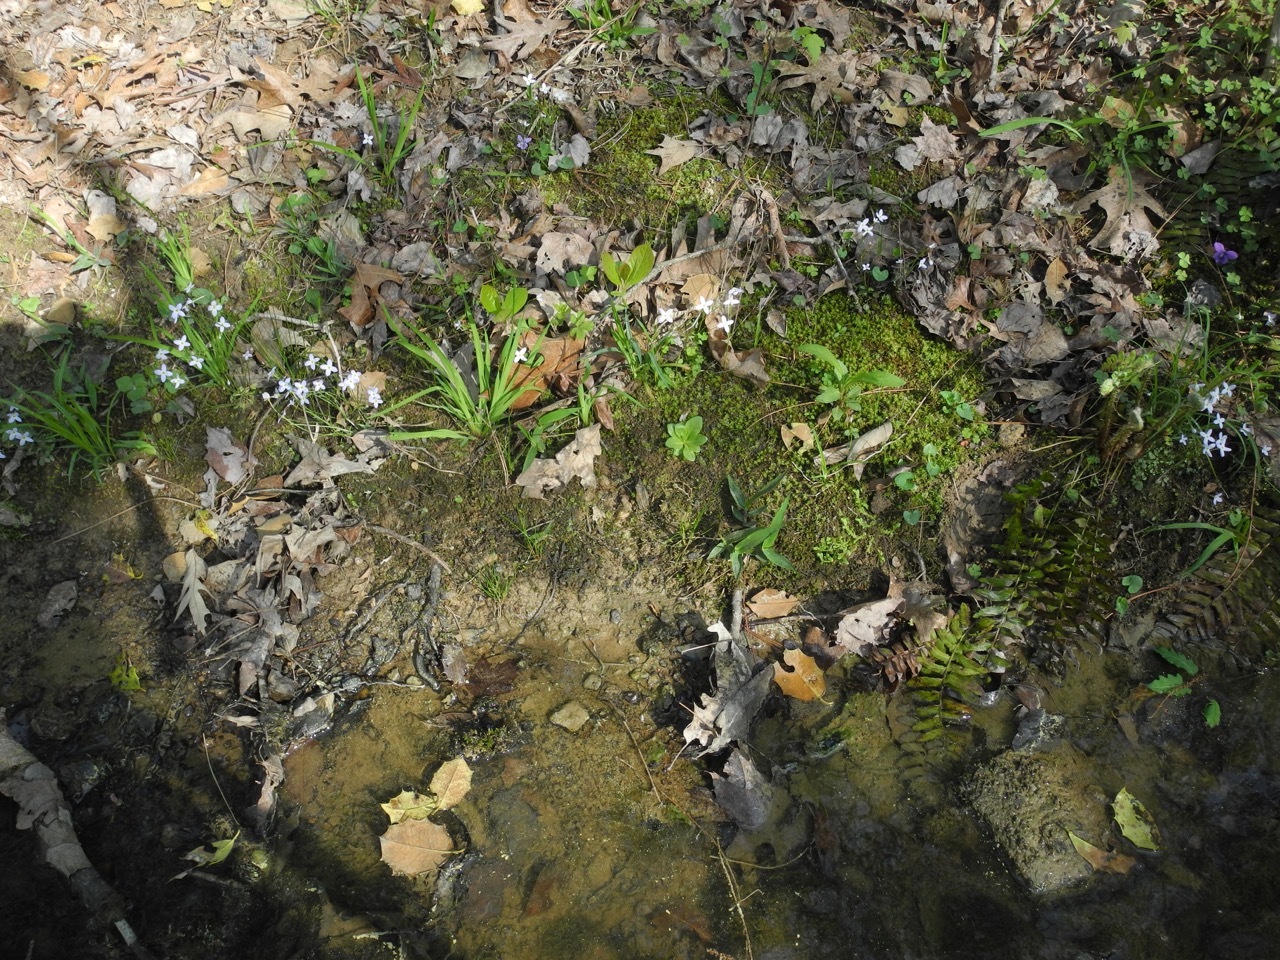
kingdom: Plantae
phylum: Tracheophyta
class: Magnoliopsida
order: Ericales
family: Primulaceae
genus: Samolus
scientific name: Samolus parviflorus
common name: False water pimpernel
